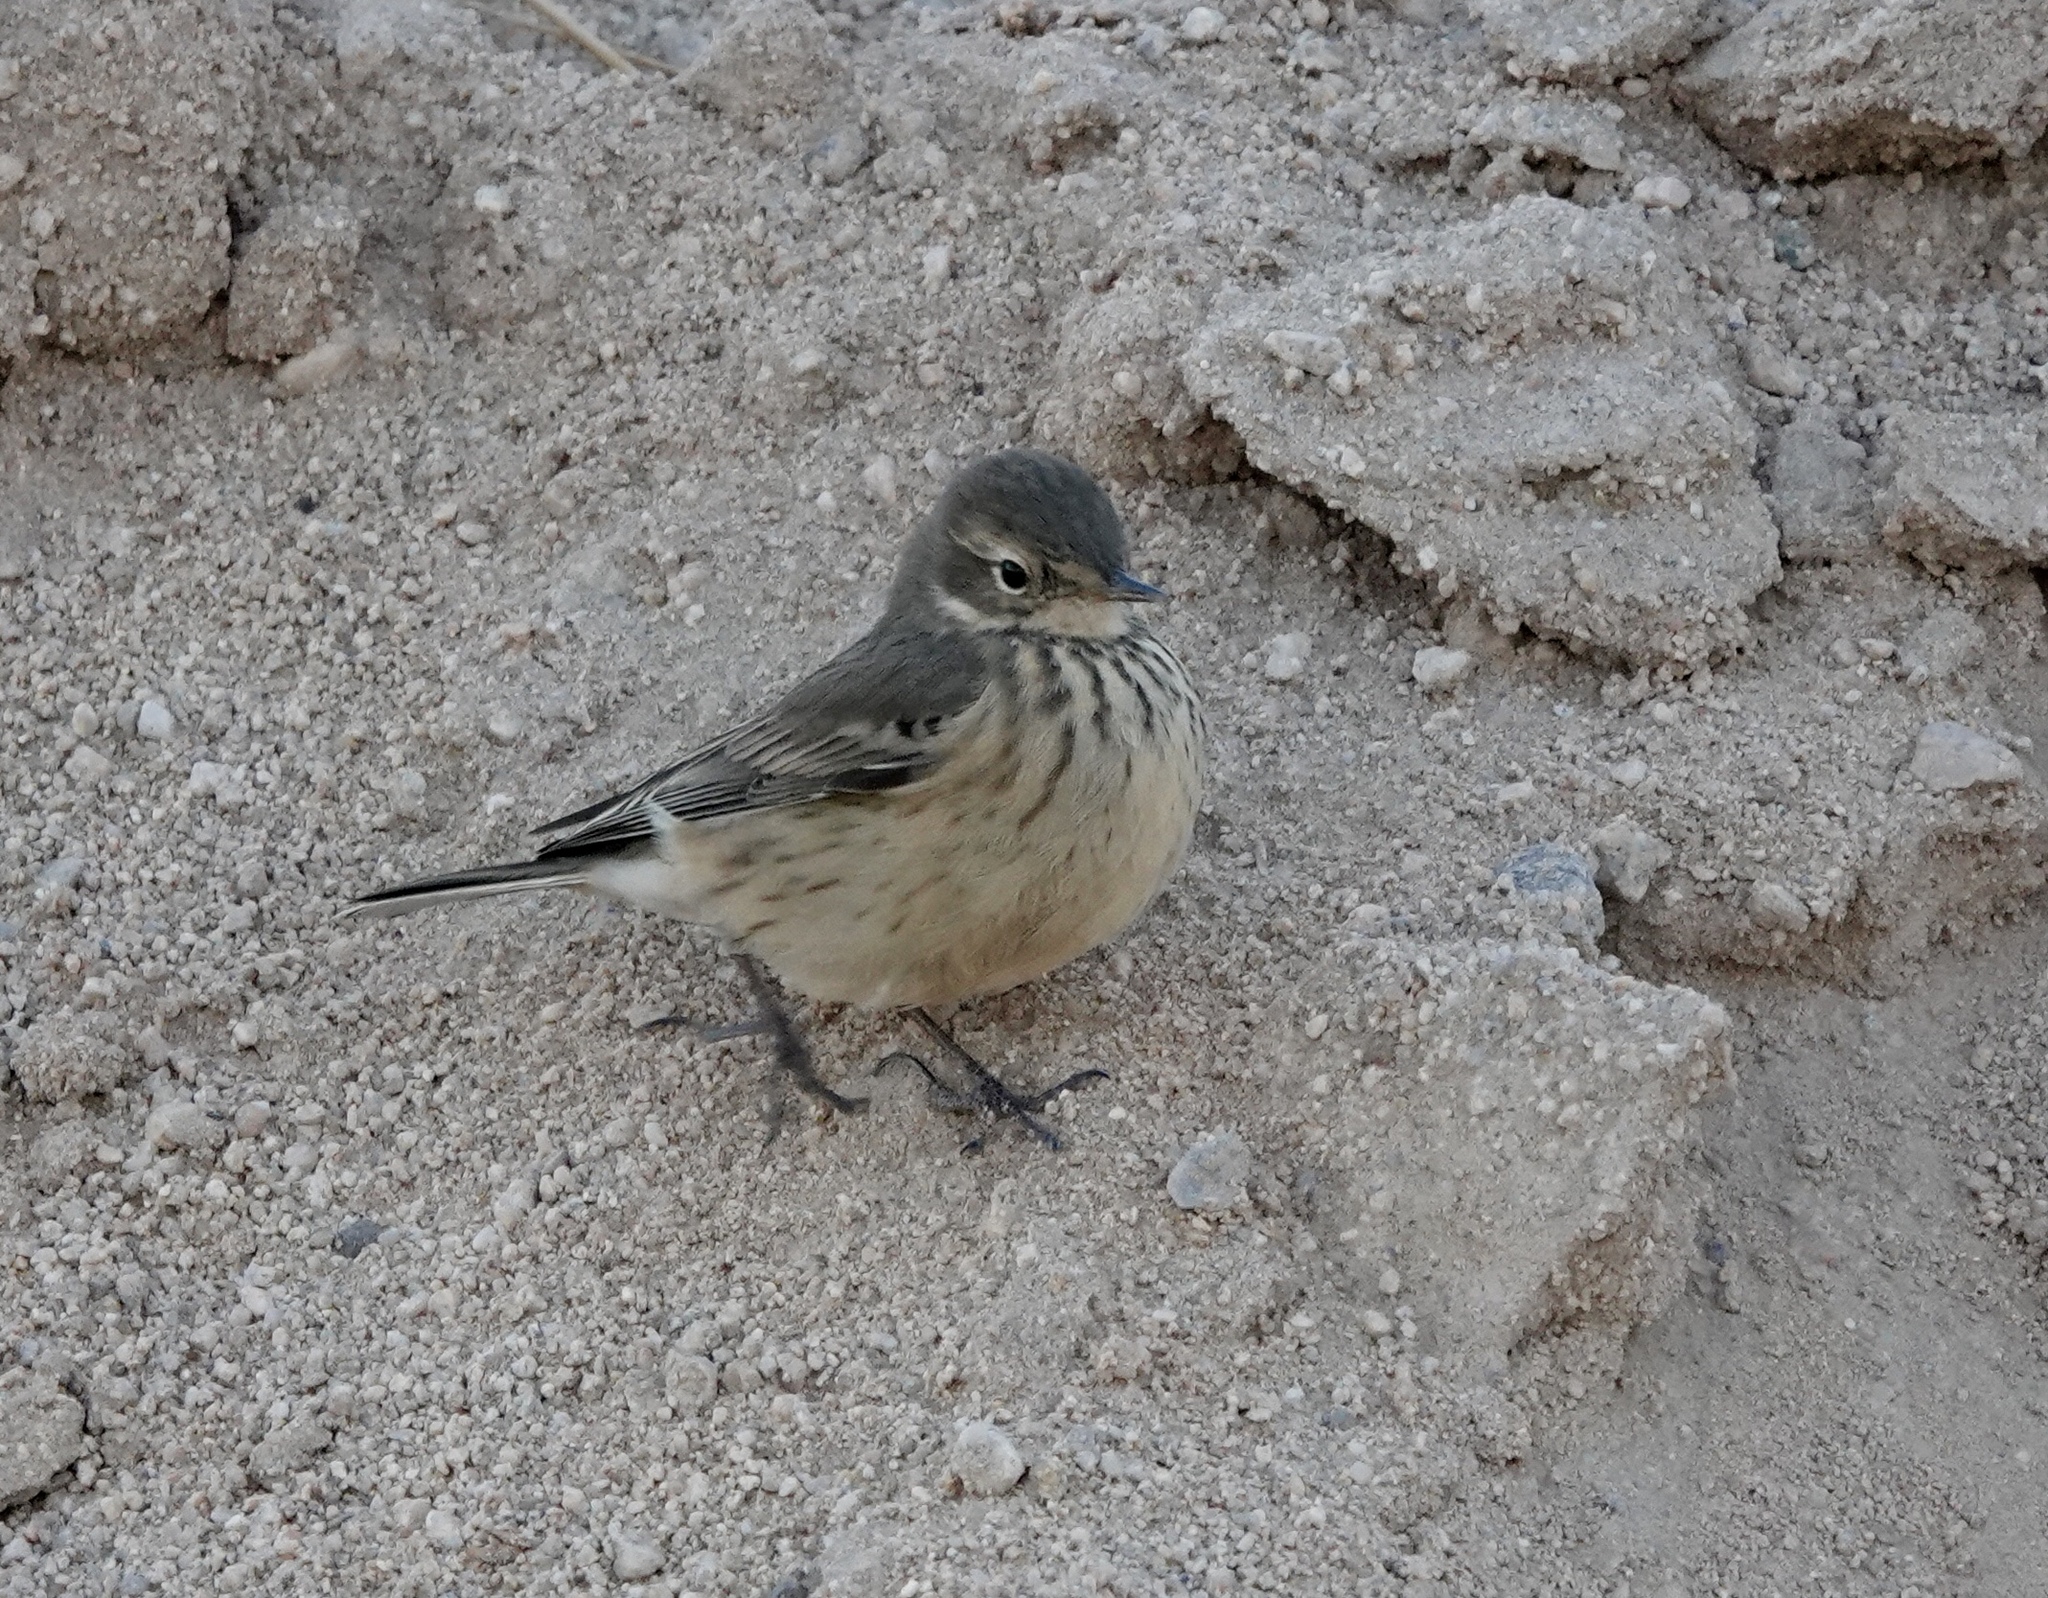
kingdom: Animalia
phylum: Chordata
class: Aves
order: Passeriformes
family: Motacillidae
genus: Anthus
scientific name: Anthus rubescens
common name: Buff-bellied pipit
